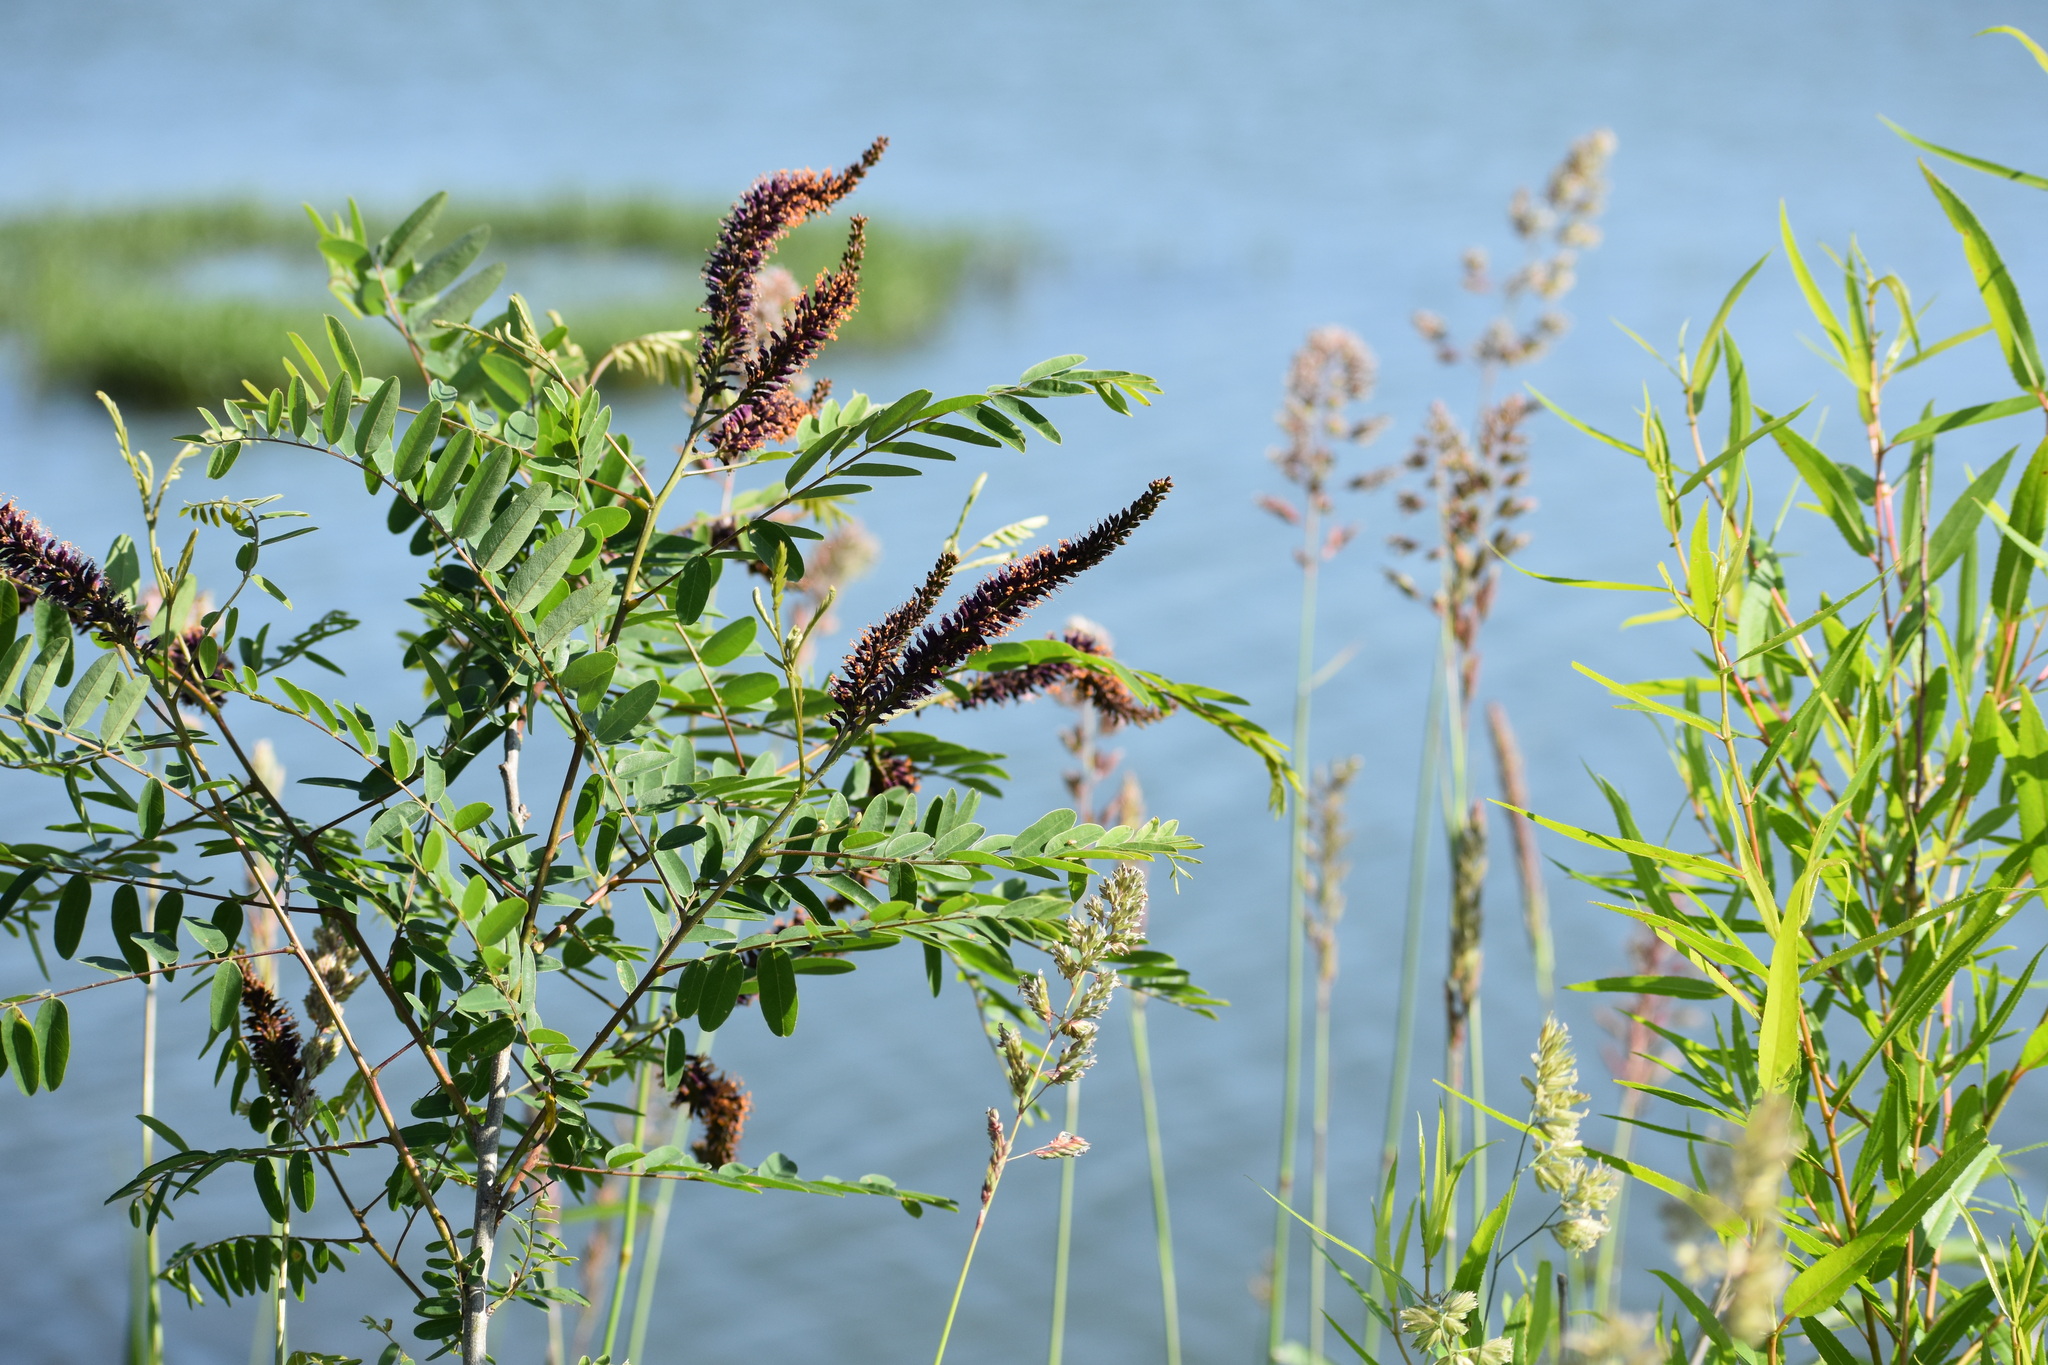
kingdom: Plantae
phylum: Tracheophyta
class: Magnoliopsida
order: Fabales
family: Fabaceae
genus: Amorpha
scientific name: Amorpha fruticosa
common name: False indigo
